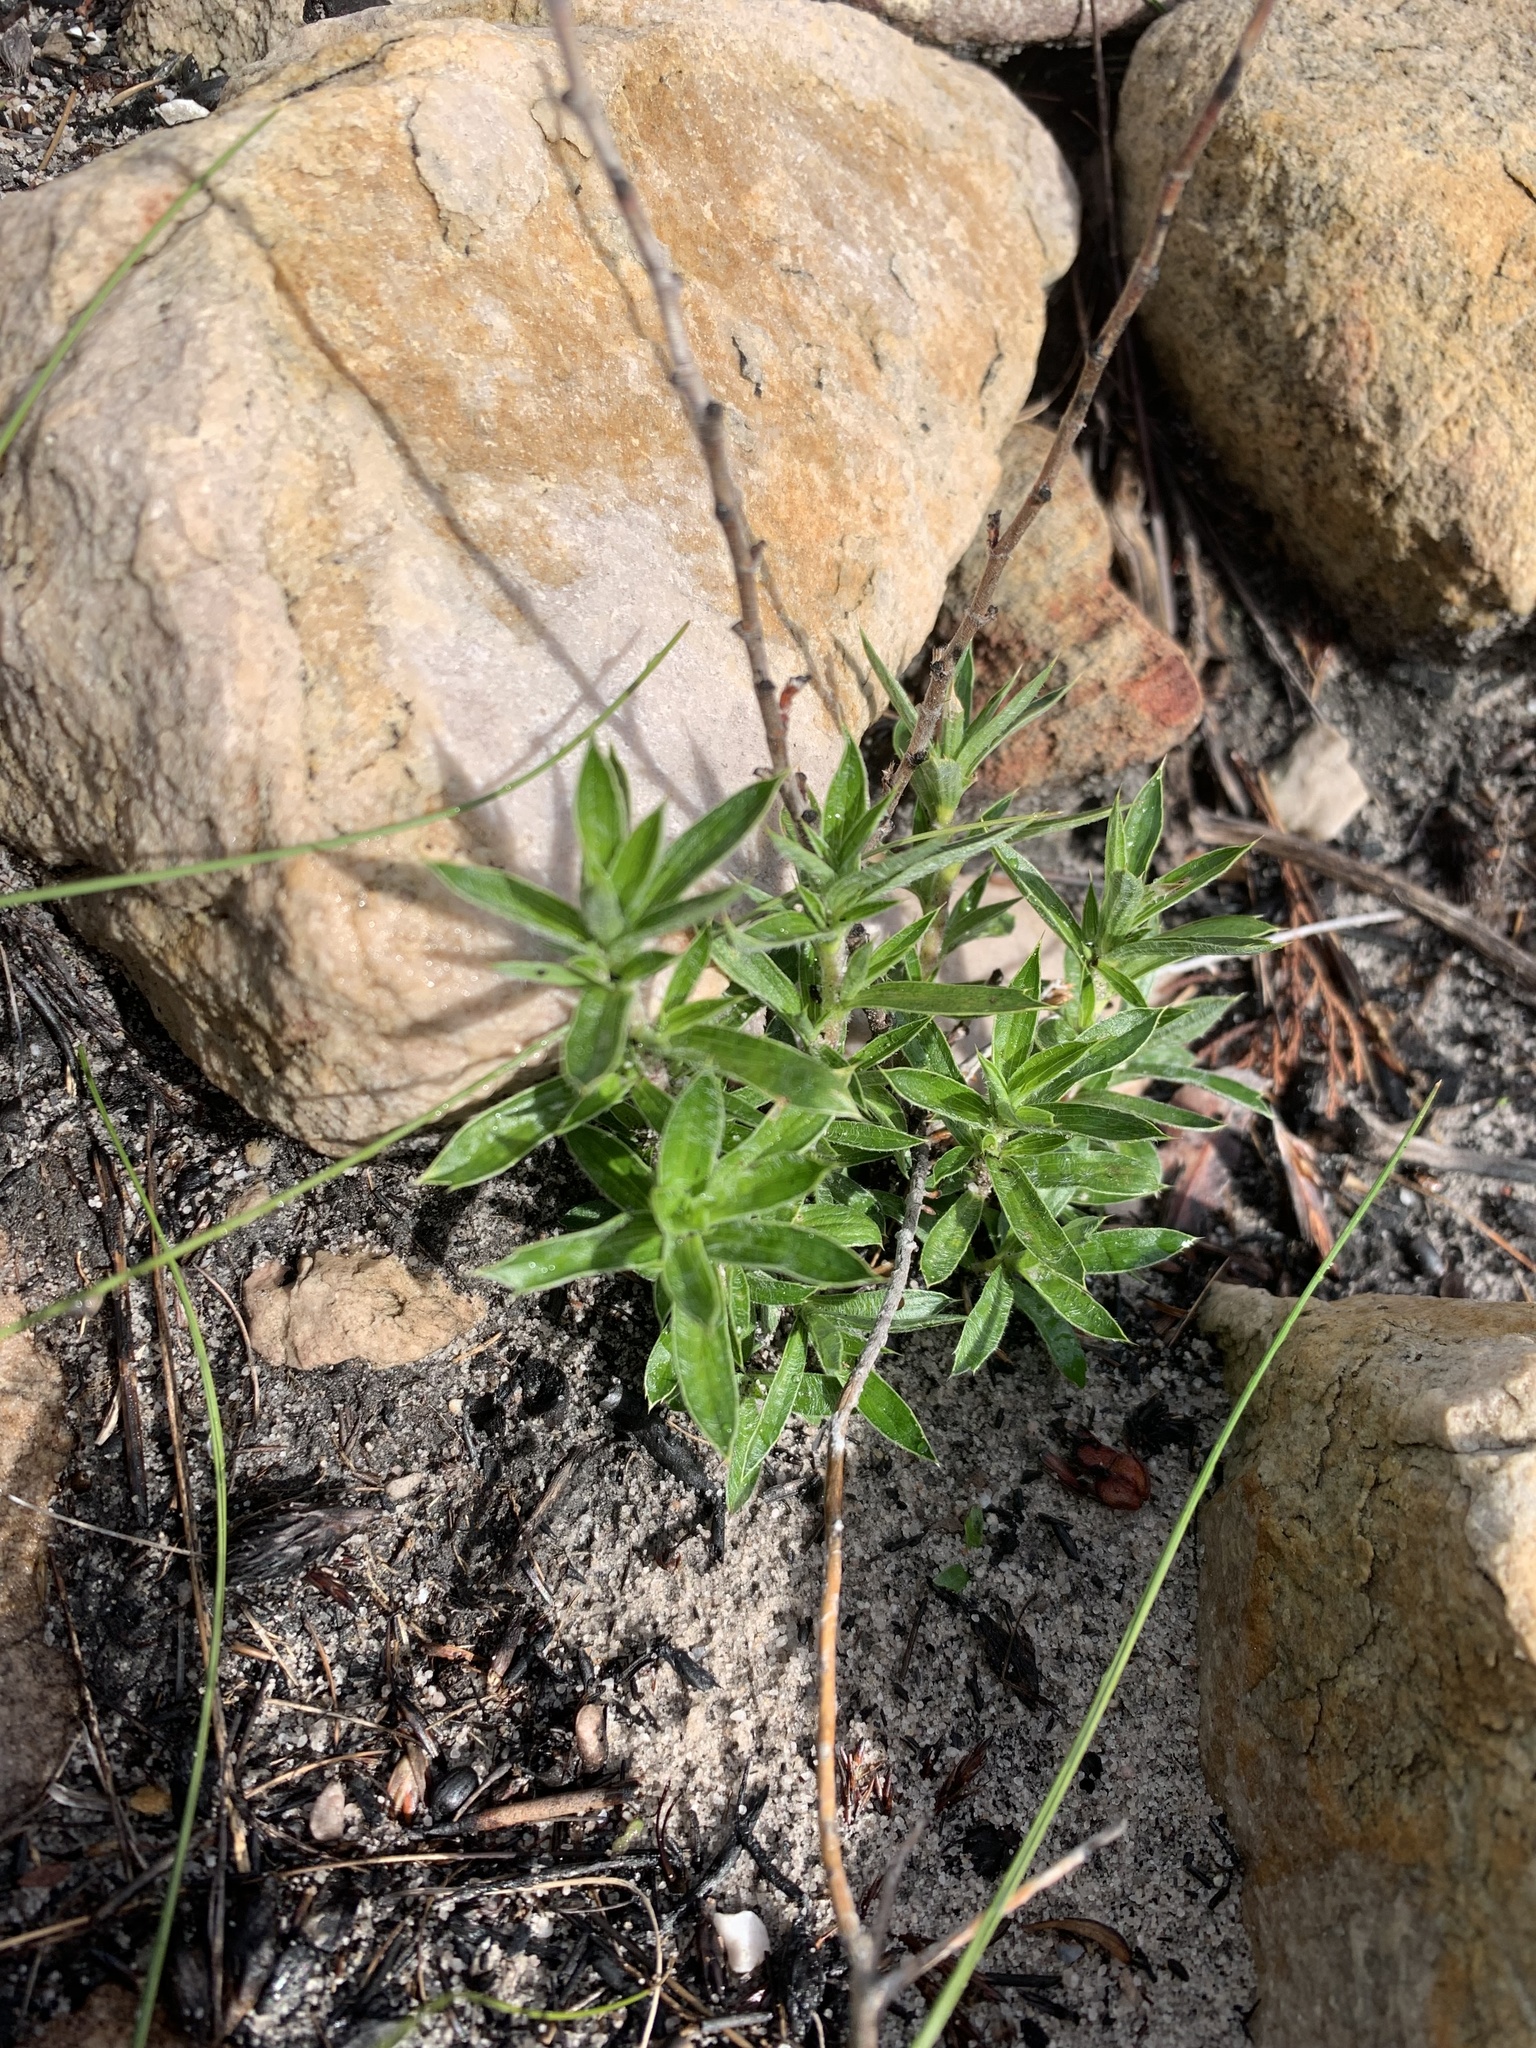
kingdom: Plantae
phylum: Tracheophyta
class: Magnoliopsida
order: Rosales
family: Rosaceae
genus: Cliffortia
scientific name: Cliffortia ruscifolia
